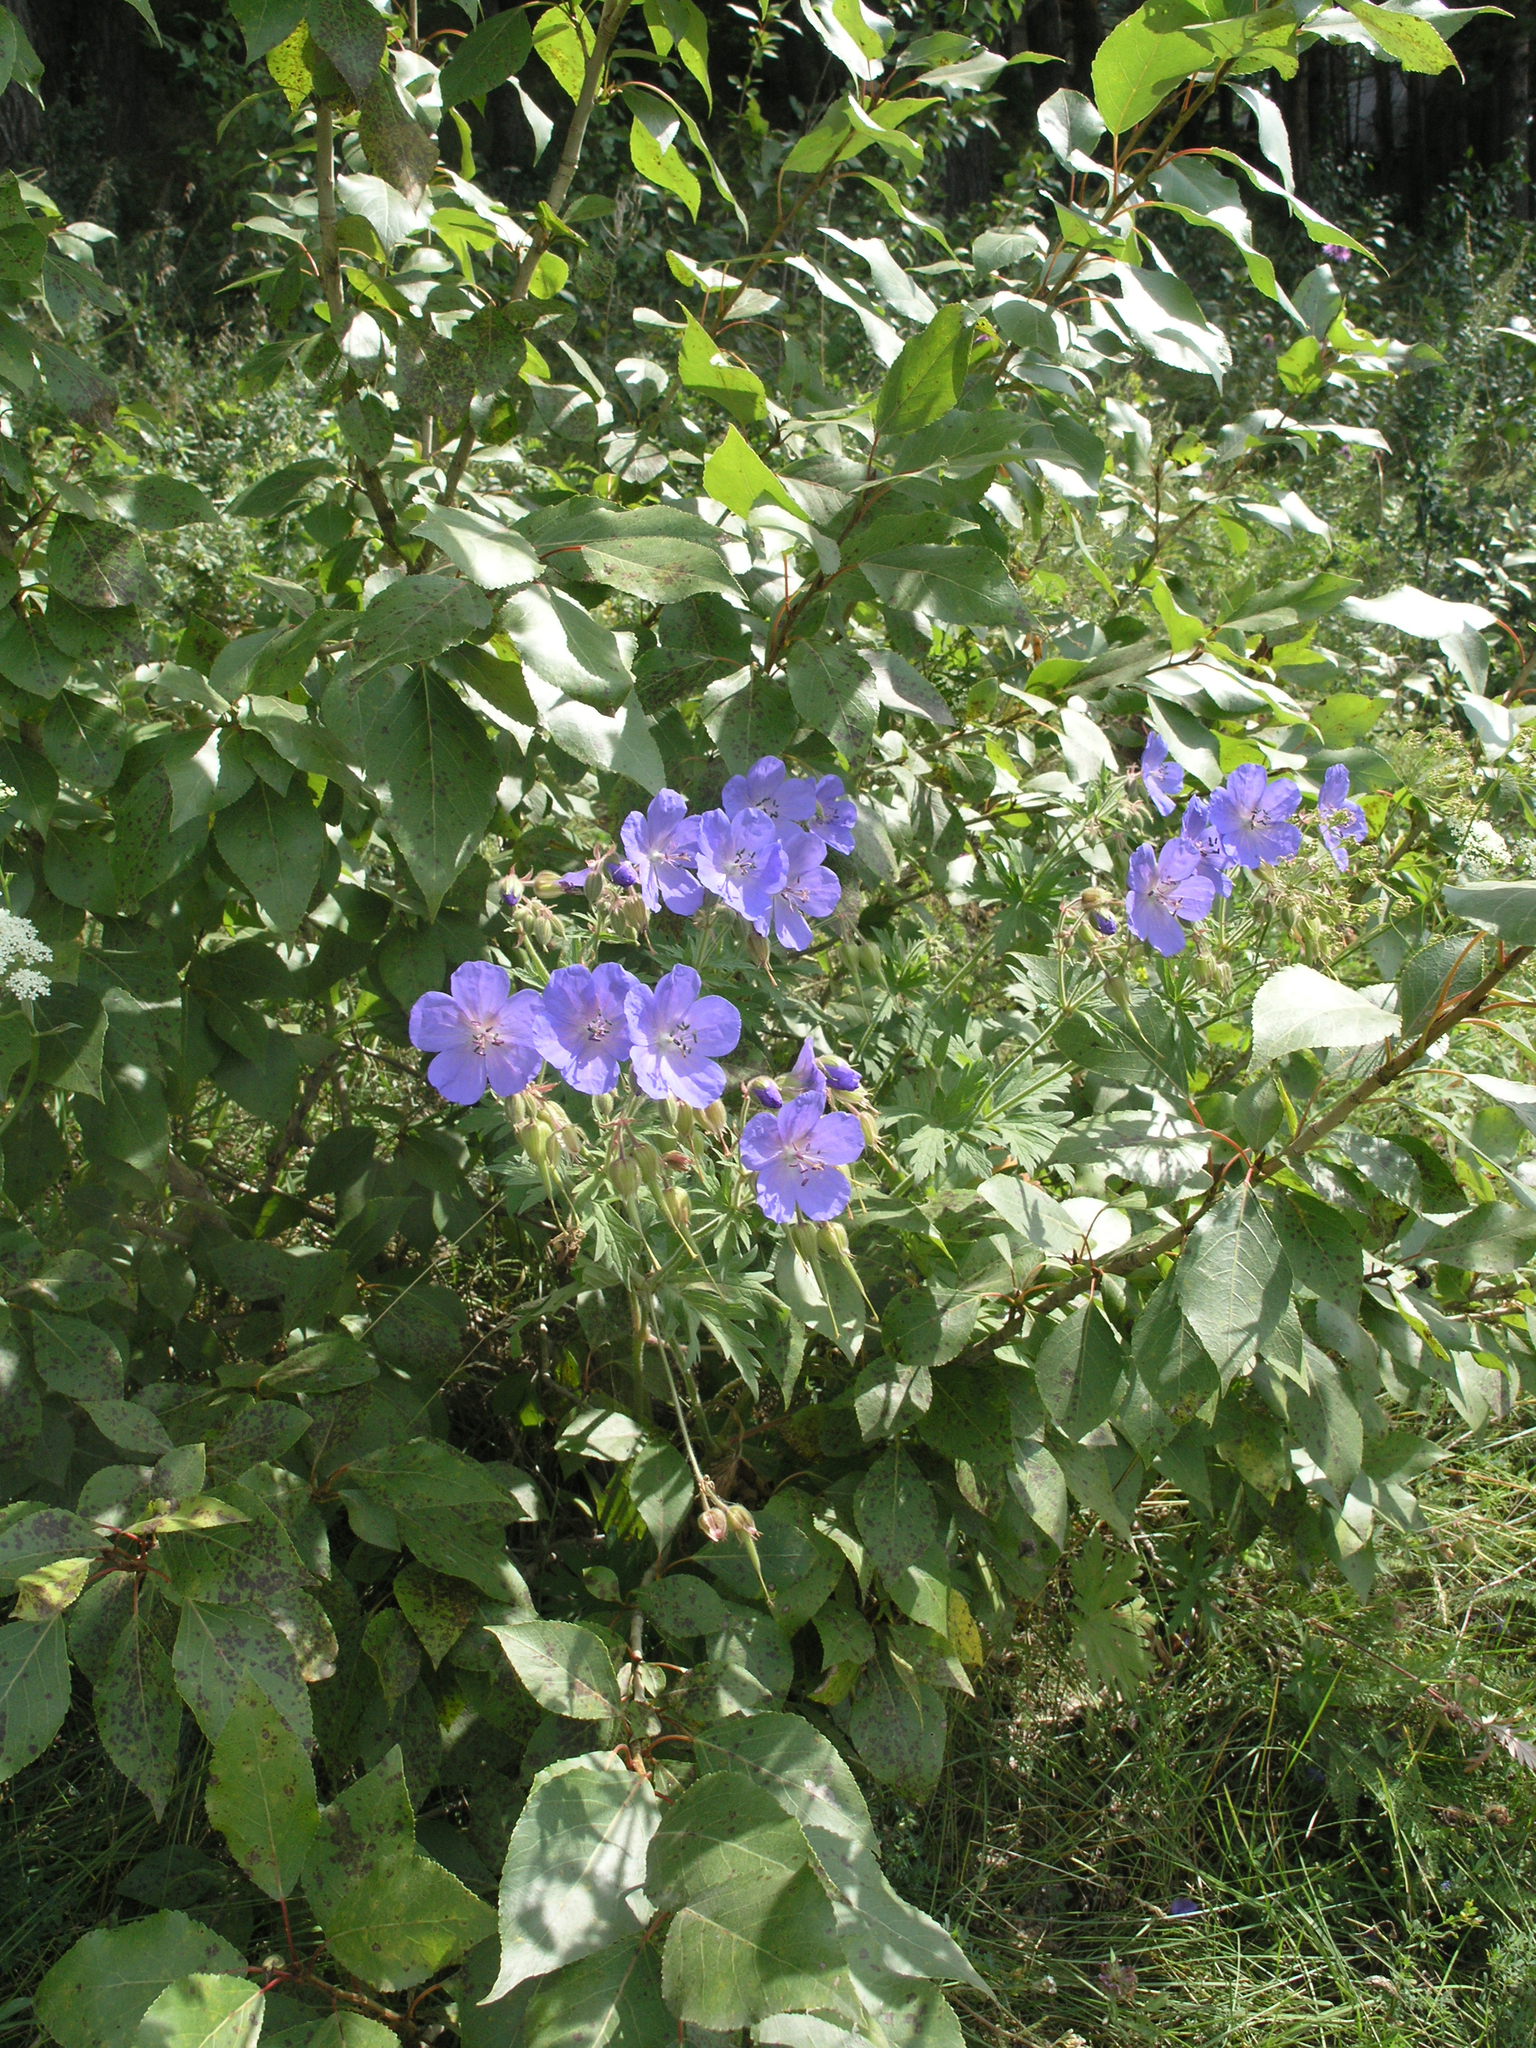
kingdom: Plantae
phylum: Tracheophyta
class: Magnoliopsida
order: Geraniales
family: Geraniaceae
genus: Geranium
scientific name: Geranium pratense
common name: Meadow crane's-bill
